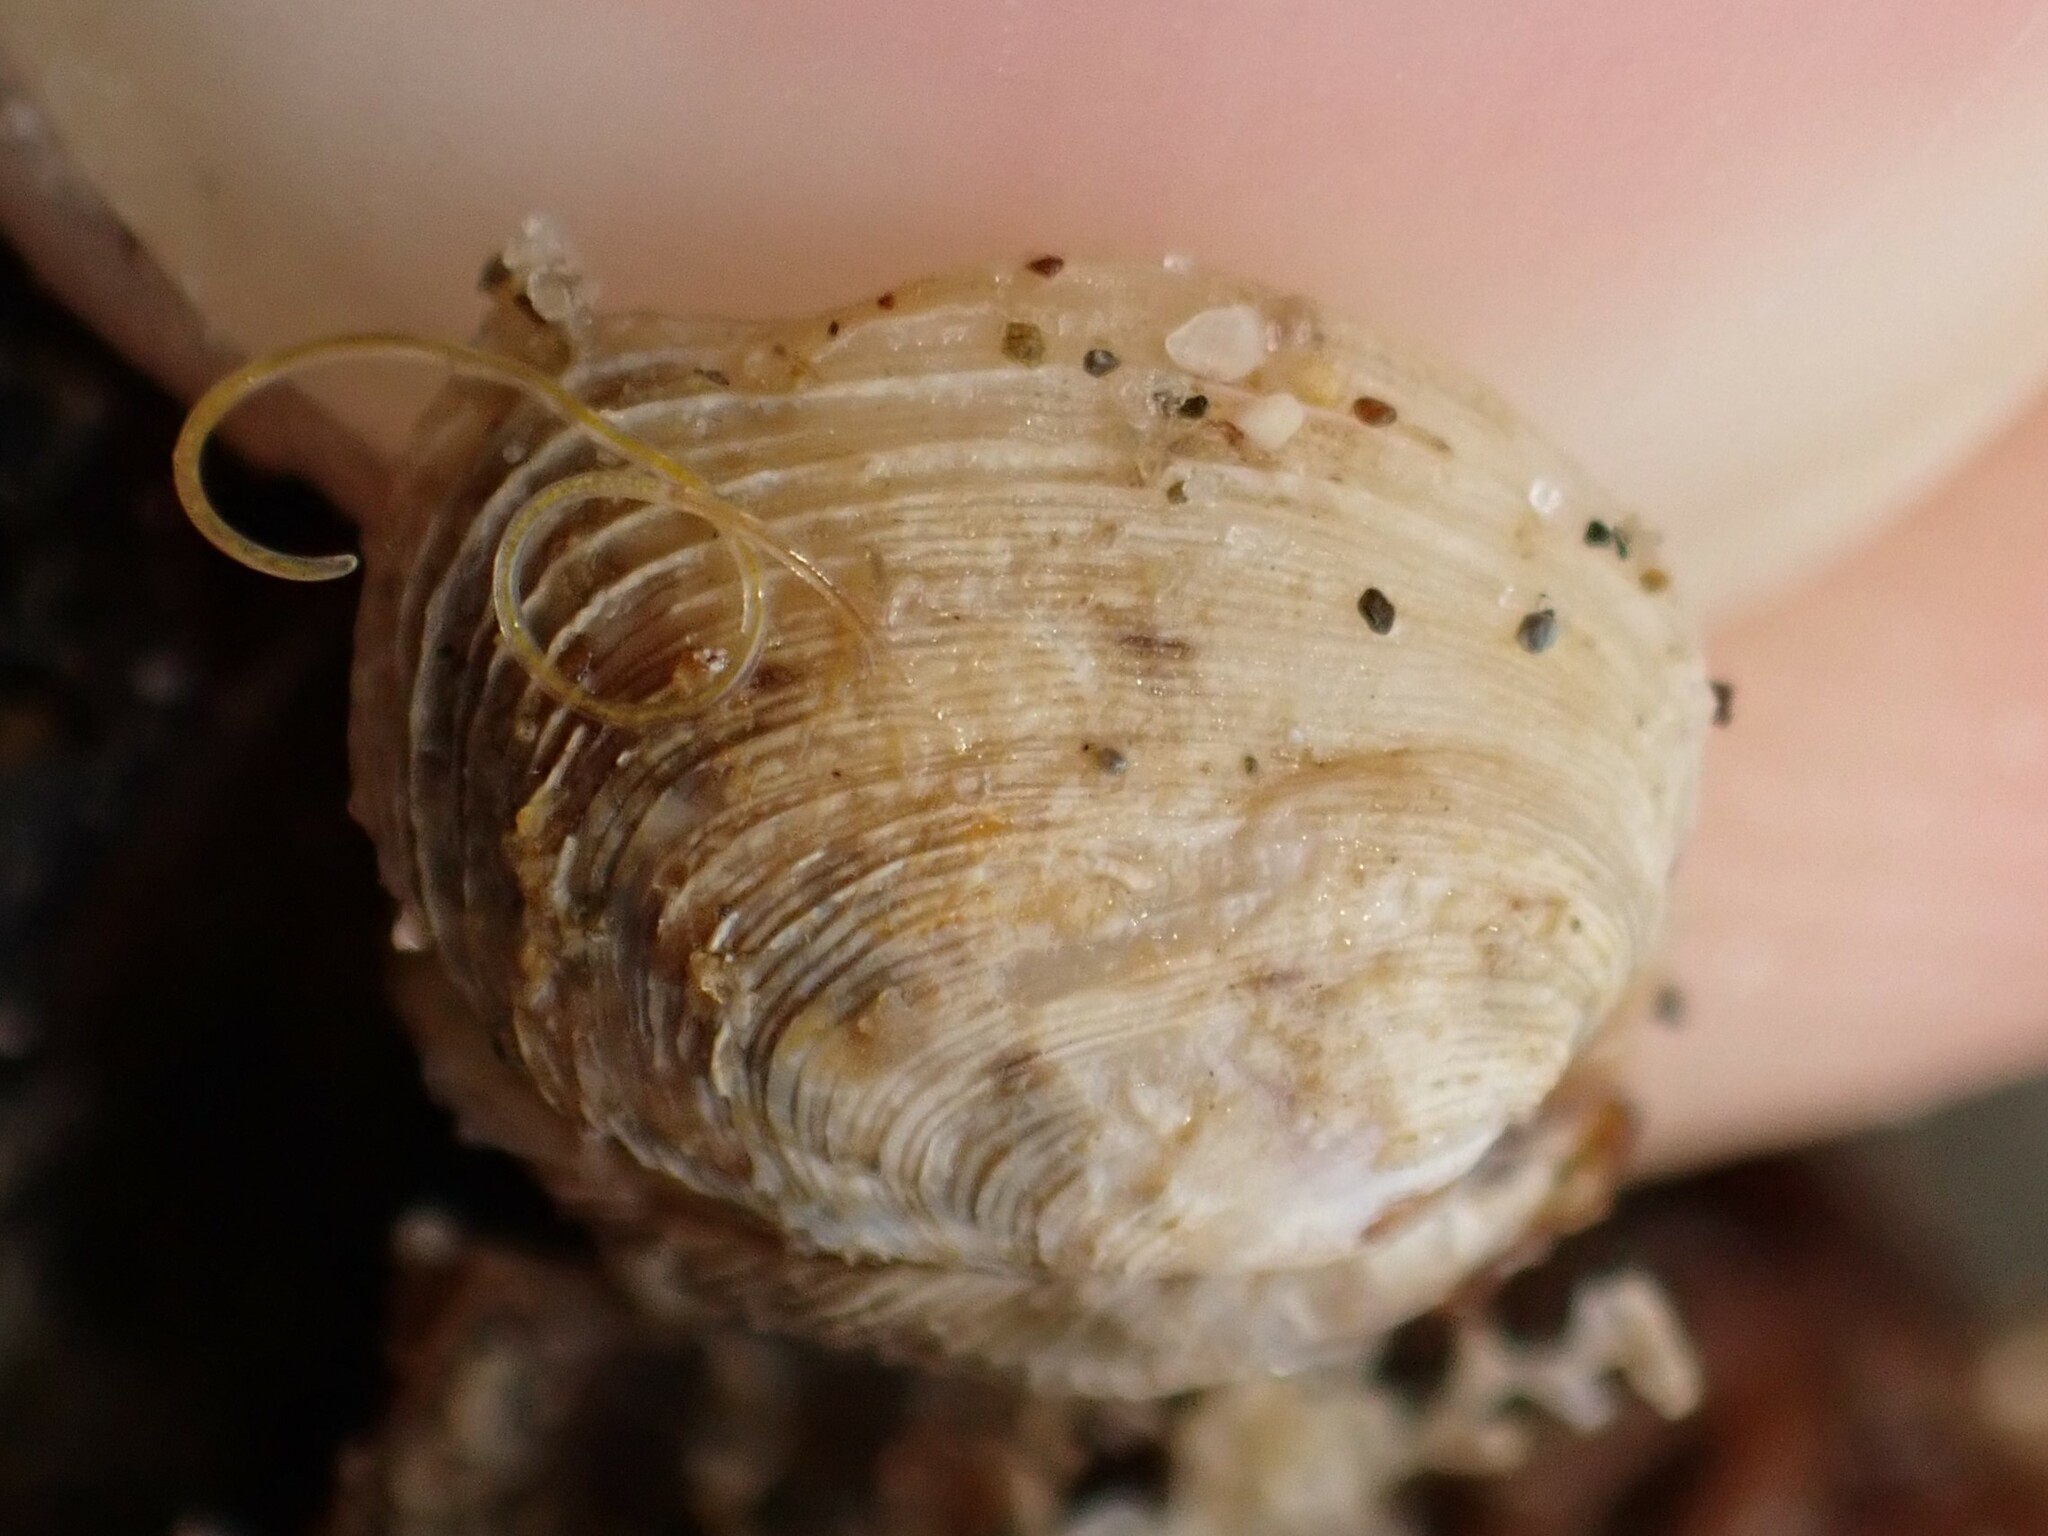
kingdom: Animalia
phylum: Mollusca
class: Bivalvia
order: Venerida
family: Veneridae
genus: Irus
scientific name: Irus reflexus
